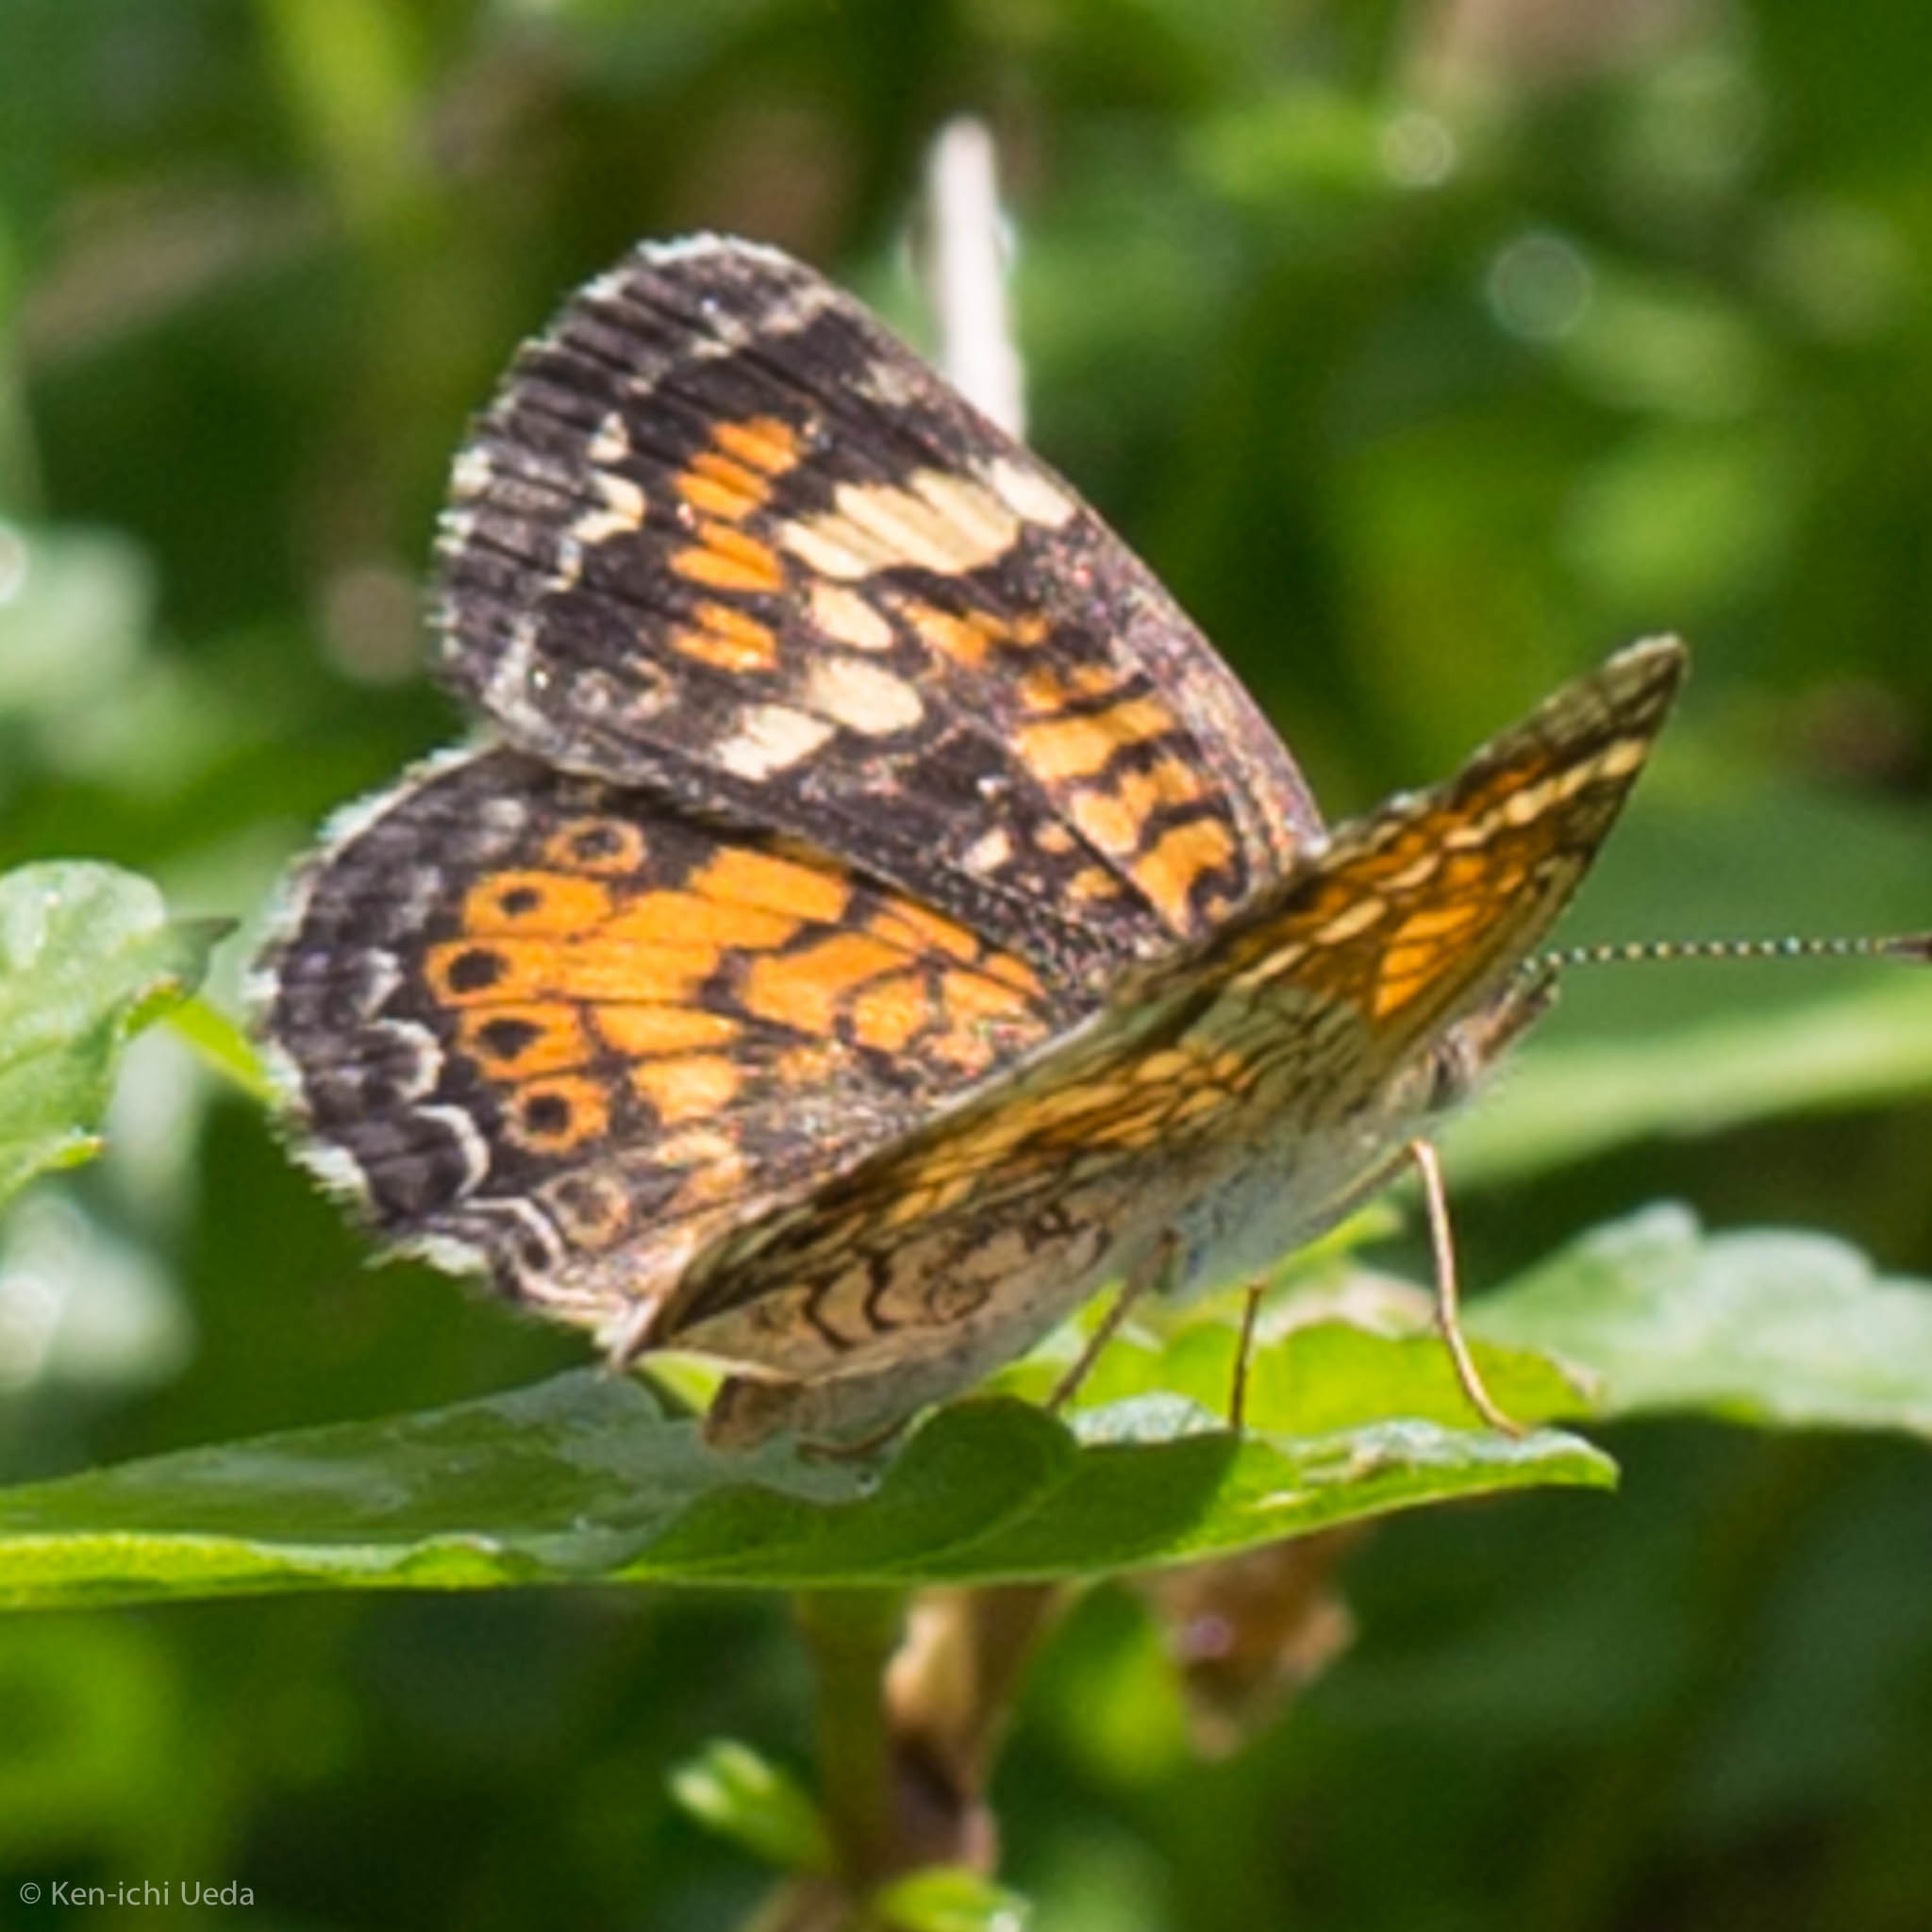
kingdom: Animalia
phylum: Arthropoda
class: Insecta
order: Lepidoptera
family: Nymphalidae
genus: Phyciodes
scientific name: Phyciodes phaon
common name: Phaon crescent
